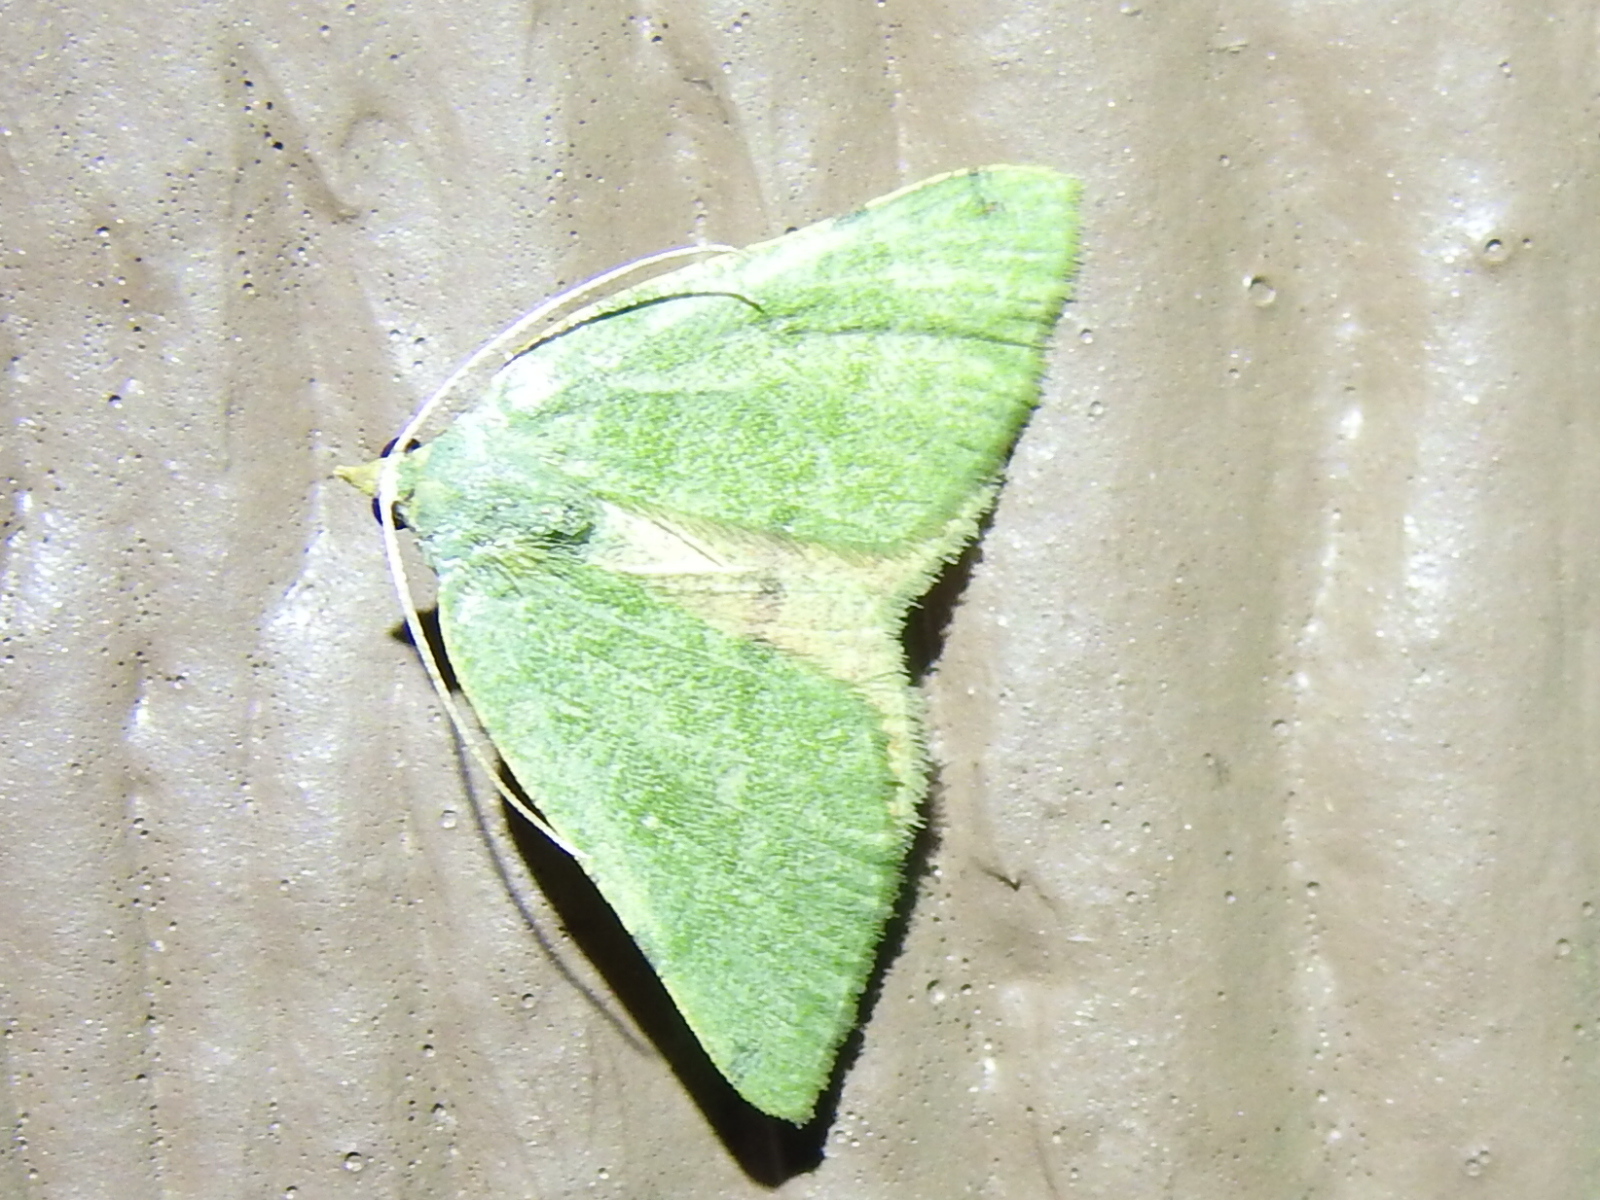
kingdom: Animalia
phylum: Arthropoda
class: Insecta
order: Lepidoptera
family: Geometridae
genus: Chloraspilates
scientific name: Chloraspilates bicoloraria
